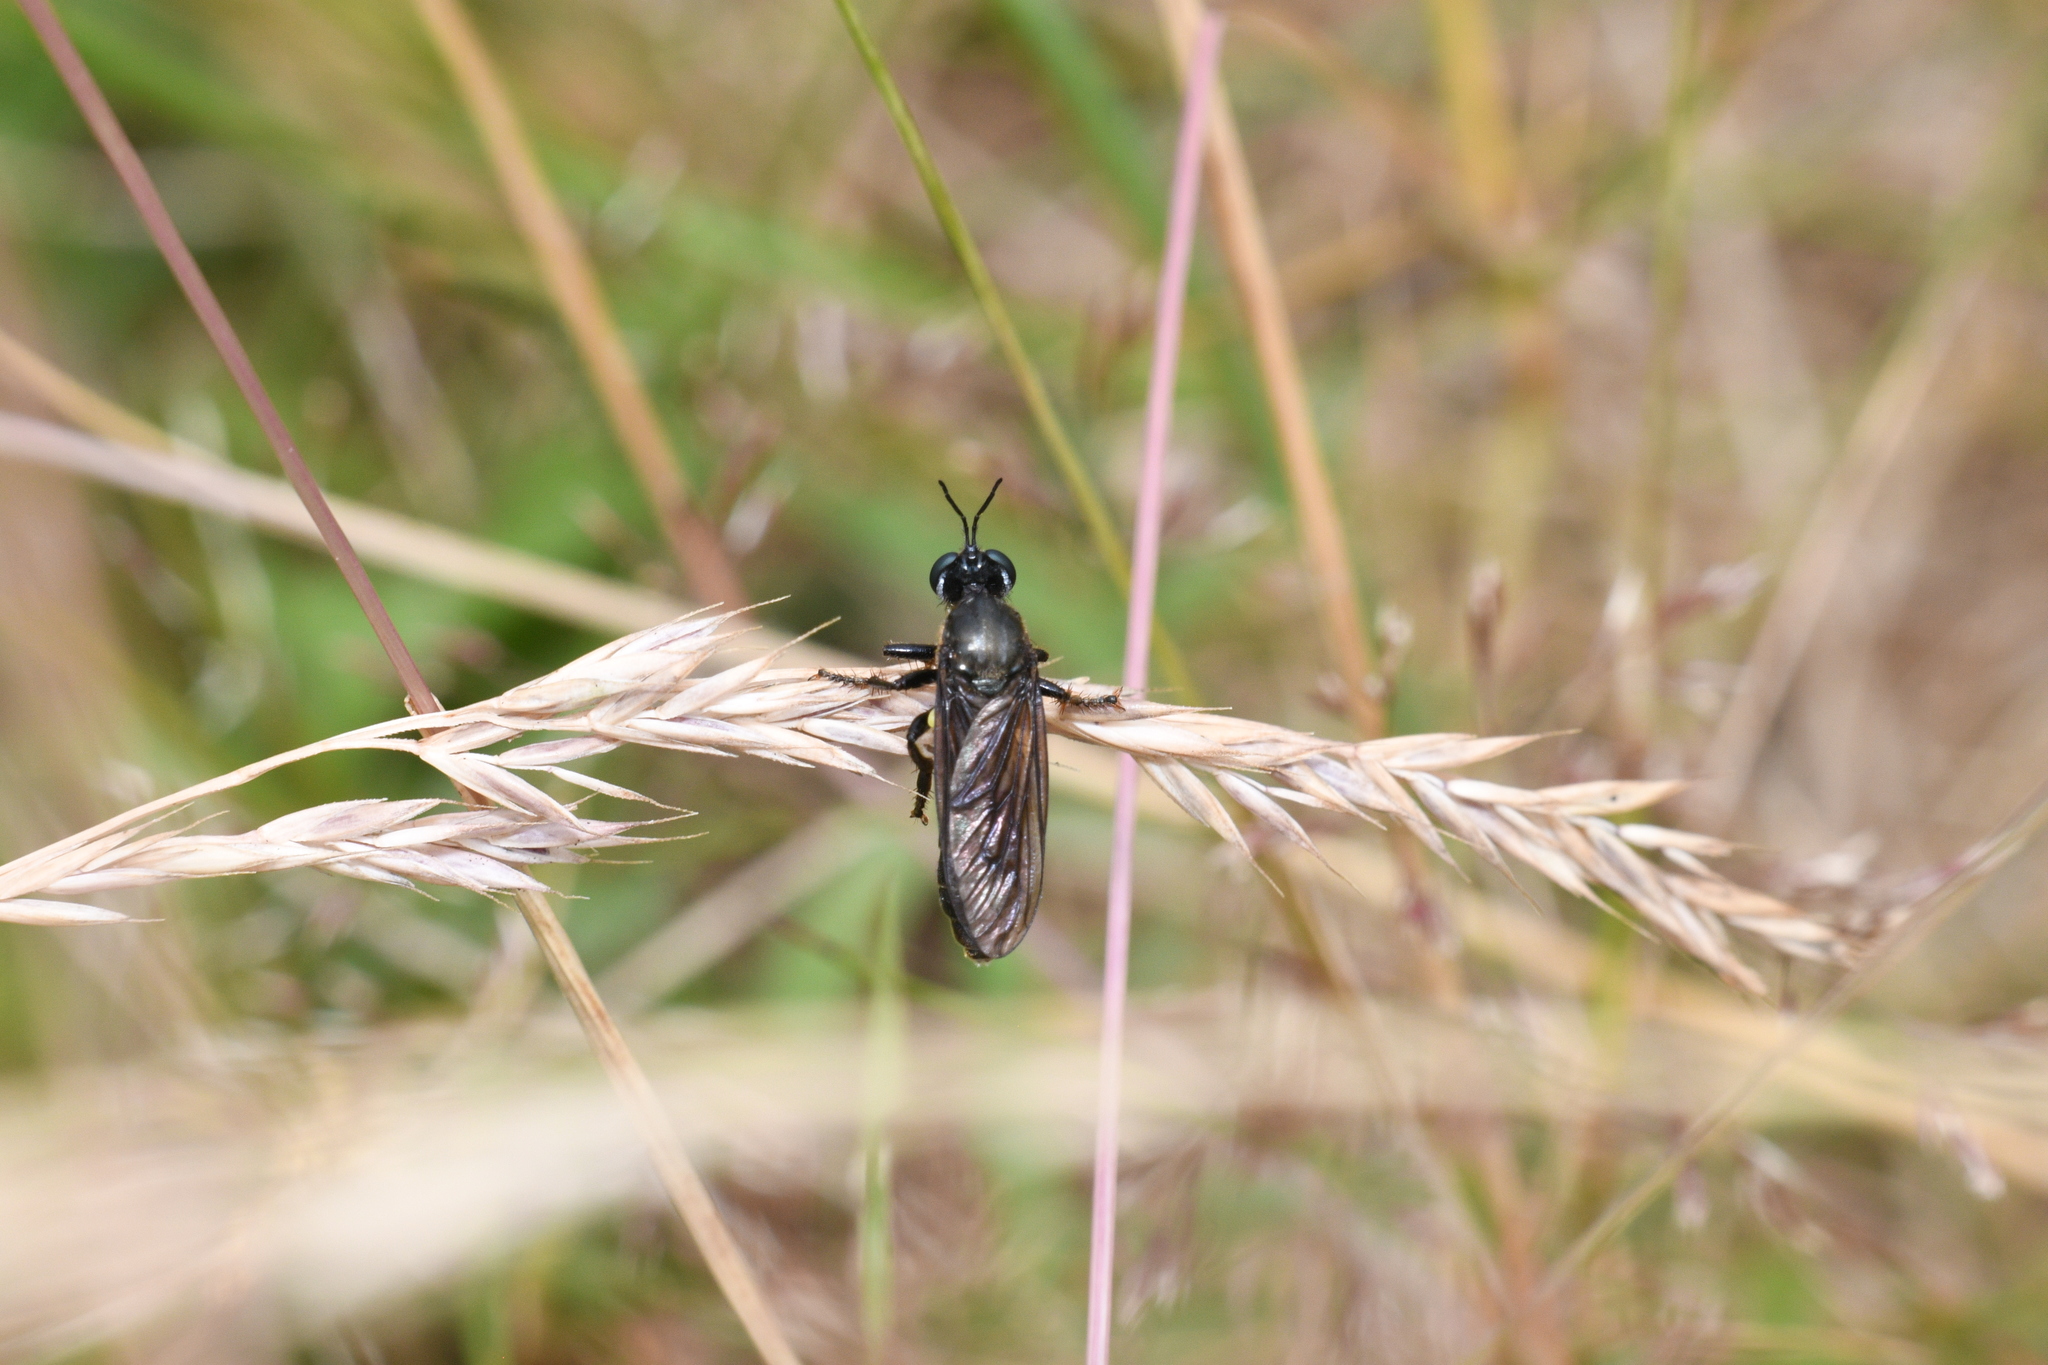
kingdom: Animalia
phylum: Arthropoda
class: Insecta
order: Diptera
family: Asilidae
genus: Dioctria
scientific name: Dioctria atricapilla
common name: Violet black-legged
